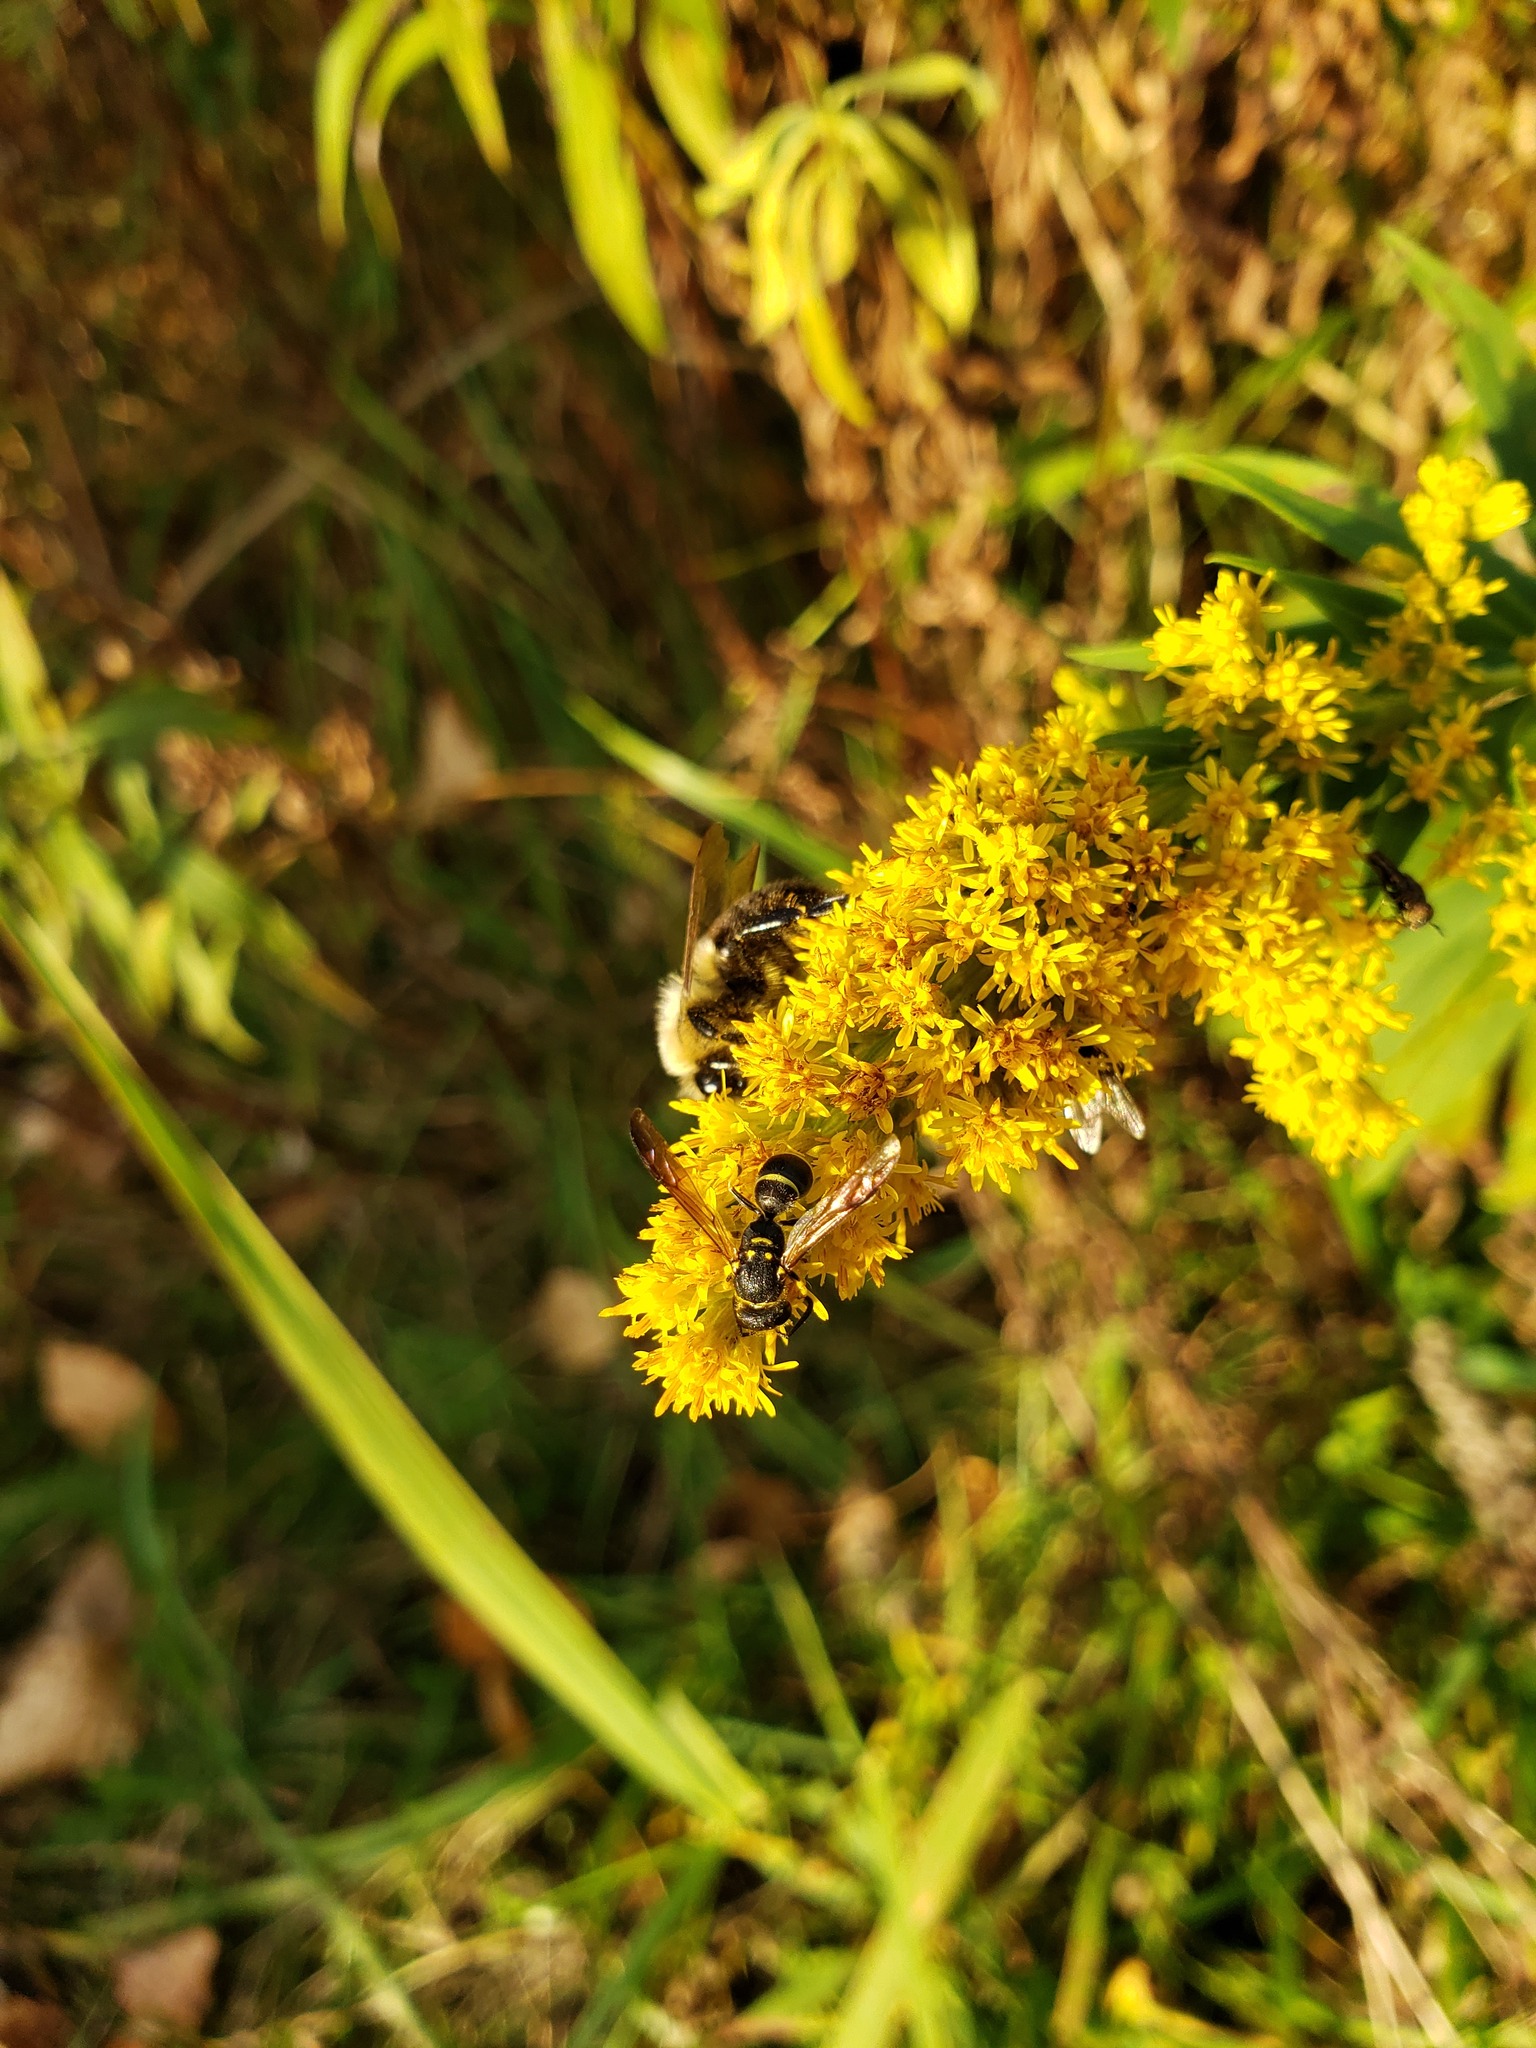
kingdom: Animalia
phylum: Arthropoda
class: Insecta
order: Hymenoptera
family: Vespidae
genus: Ancistrocerus
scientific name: Ancistrocerus adiabatus
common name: Bramble mason wasp
